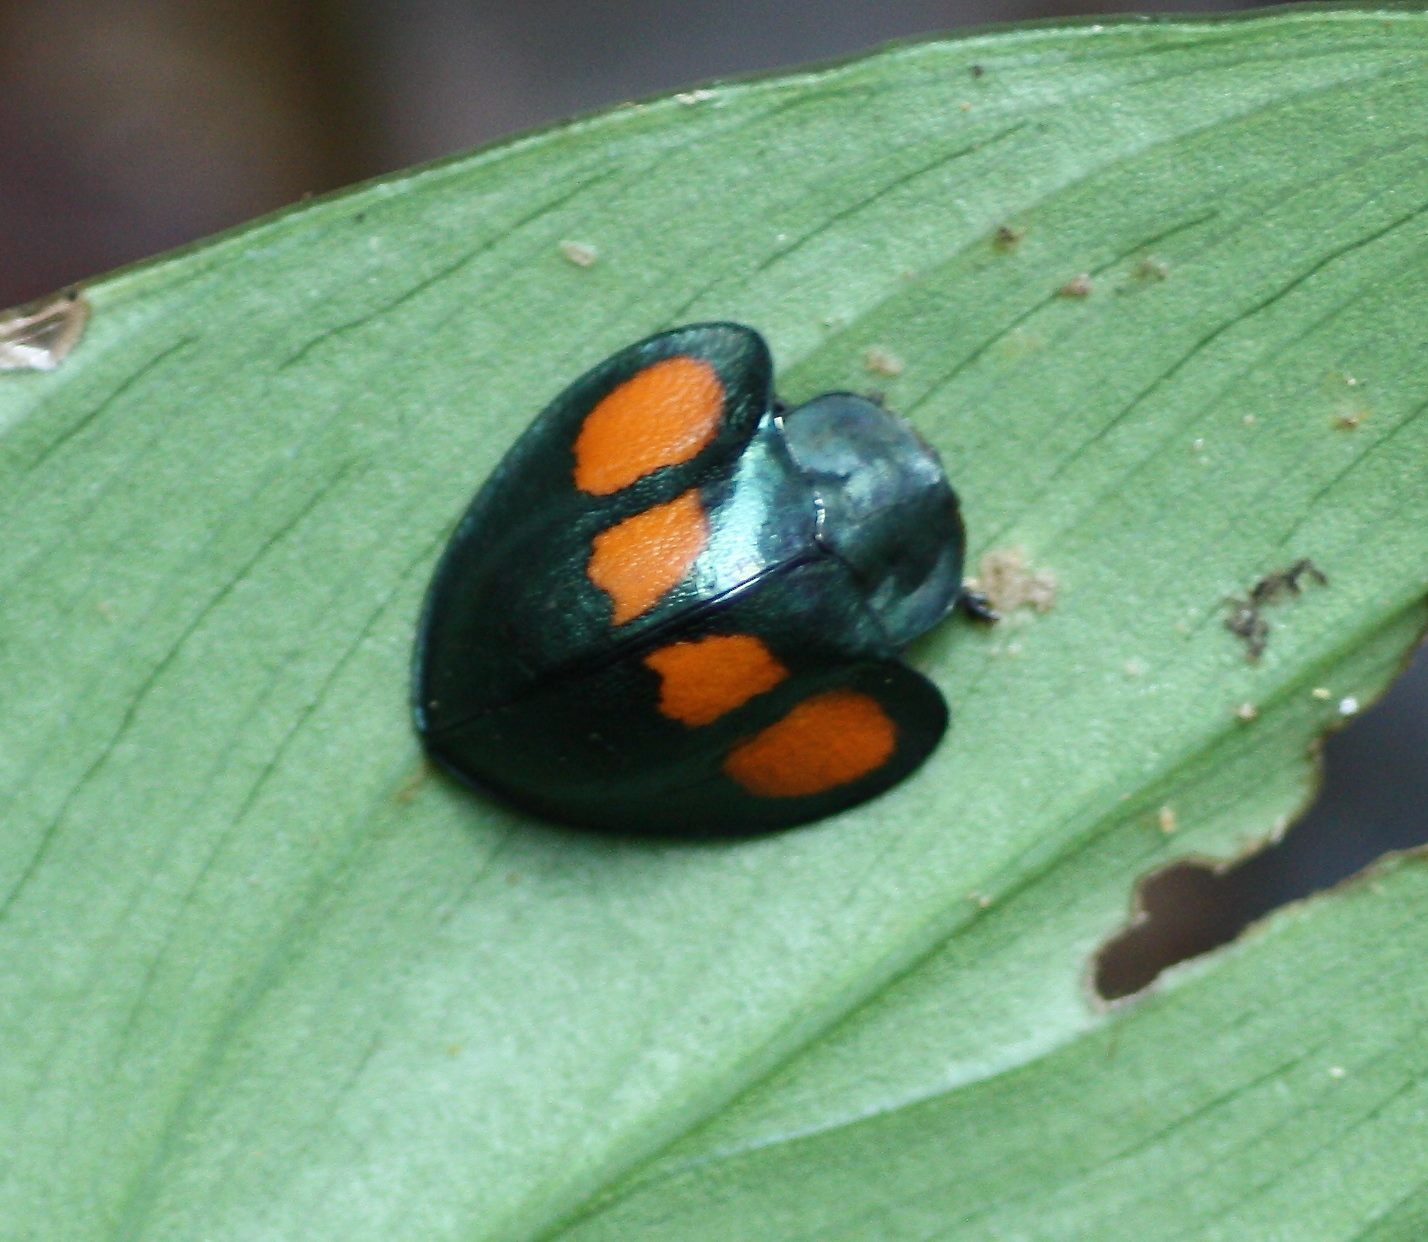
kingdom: Animalia
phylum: Arthropoda
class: Insecta
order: Coleoptera
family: Chrysomelidae
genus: Echoma
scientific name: Echoma quadristillata
